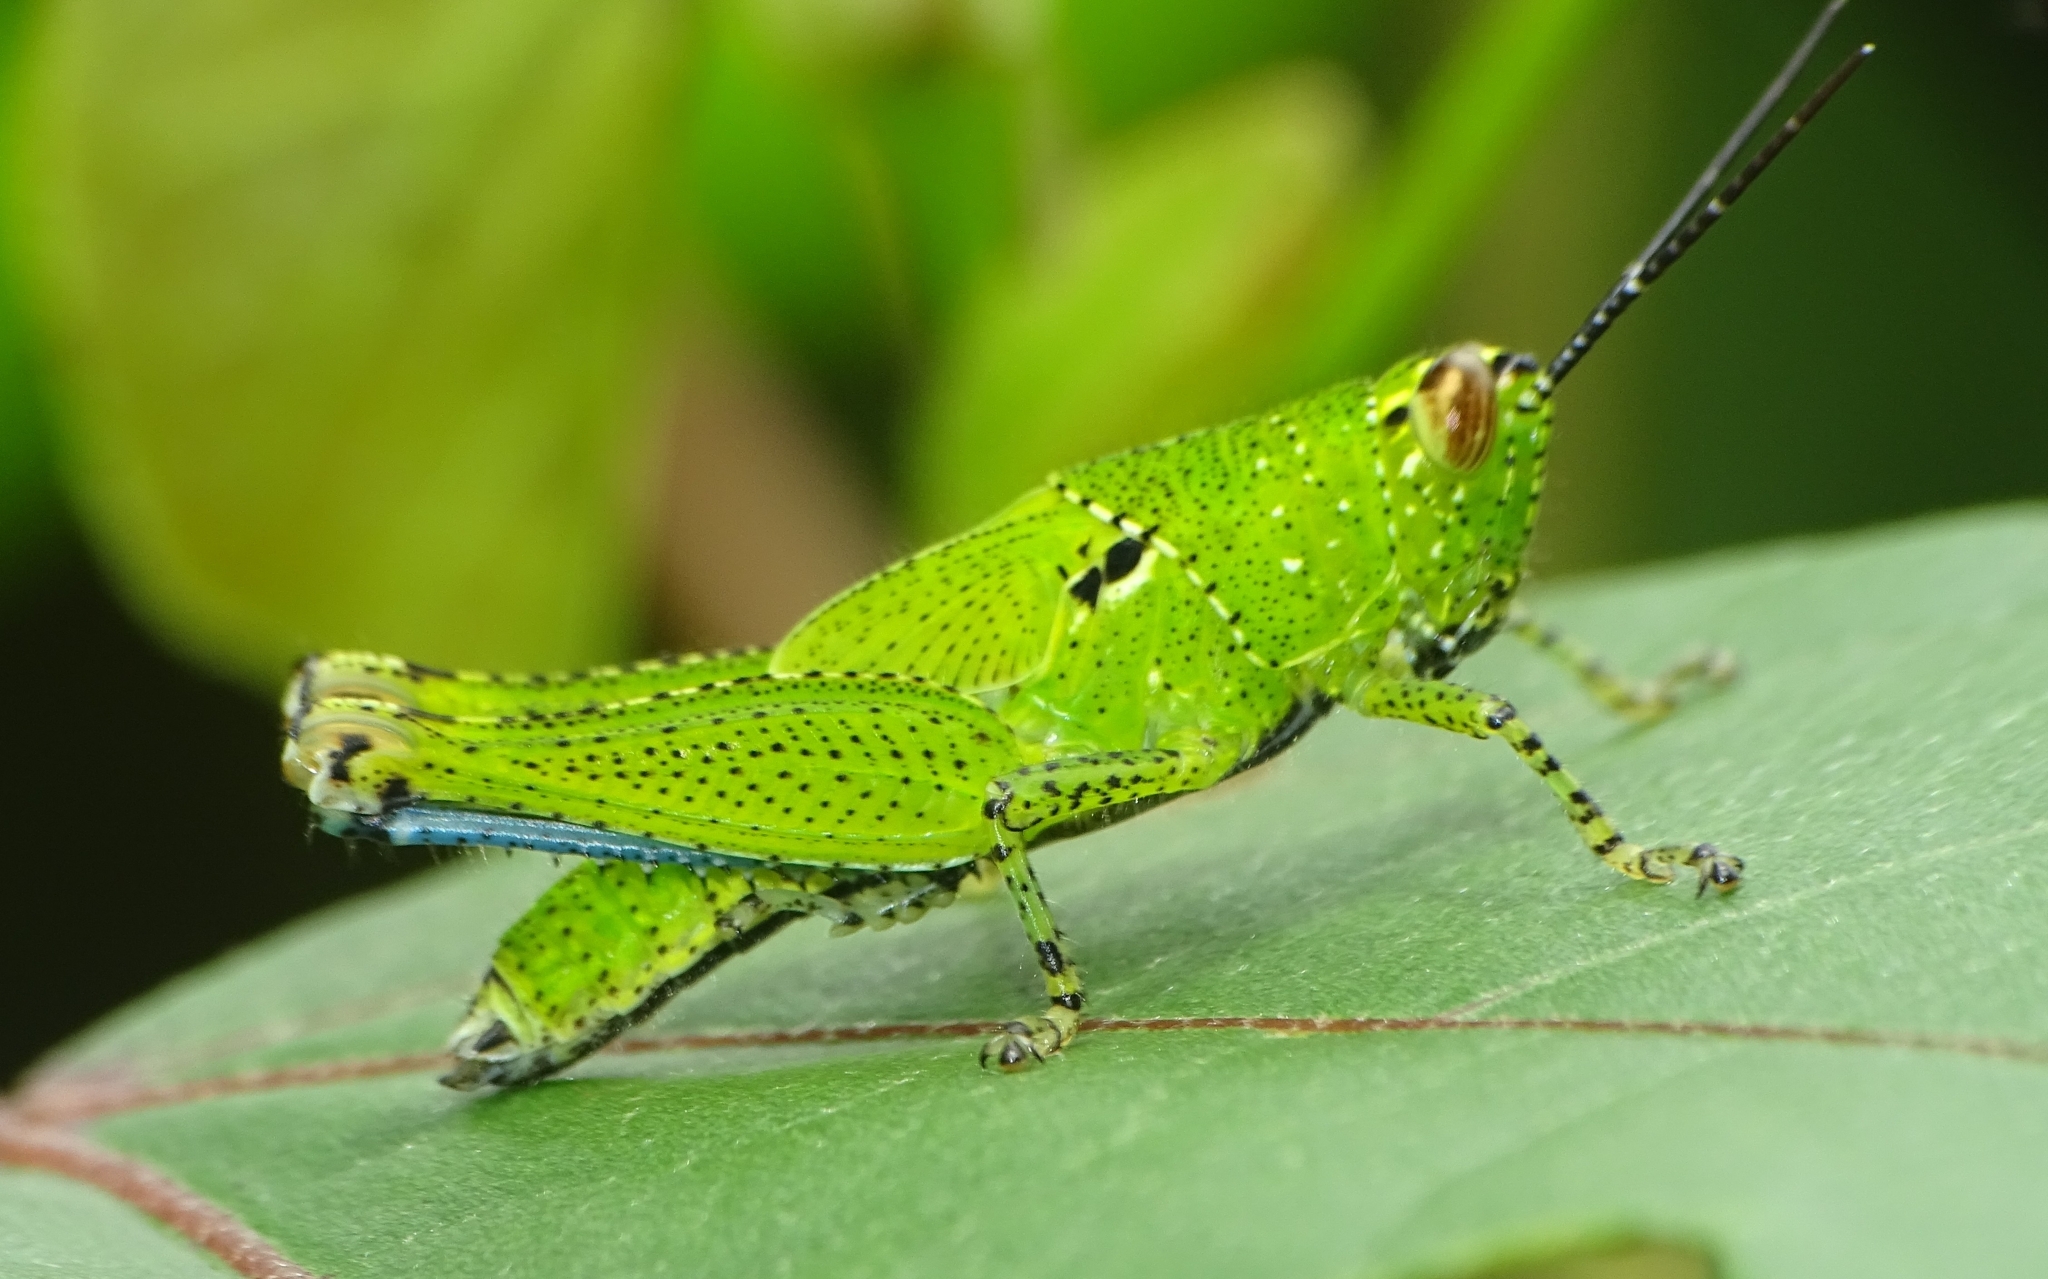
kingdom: Animalia
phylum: Arthropoda
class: Insecta
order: Orthoptera
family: Acrididae
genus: Xenocatantops
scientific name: Xenocatantops humile
